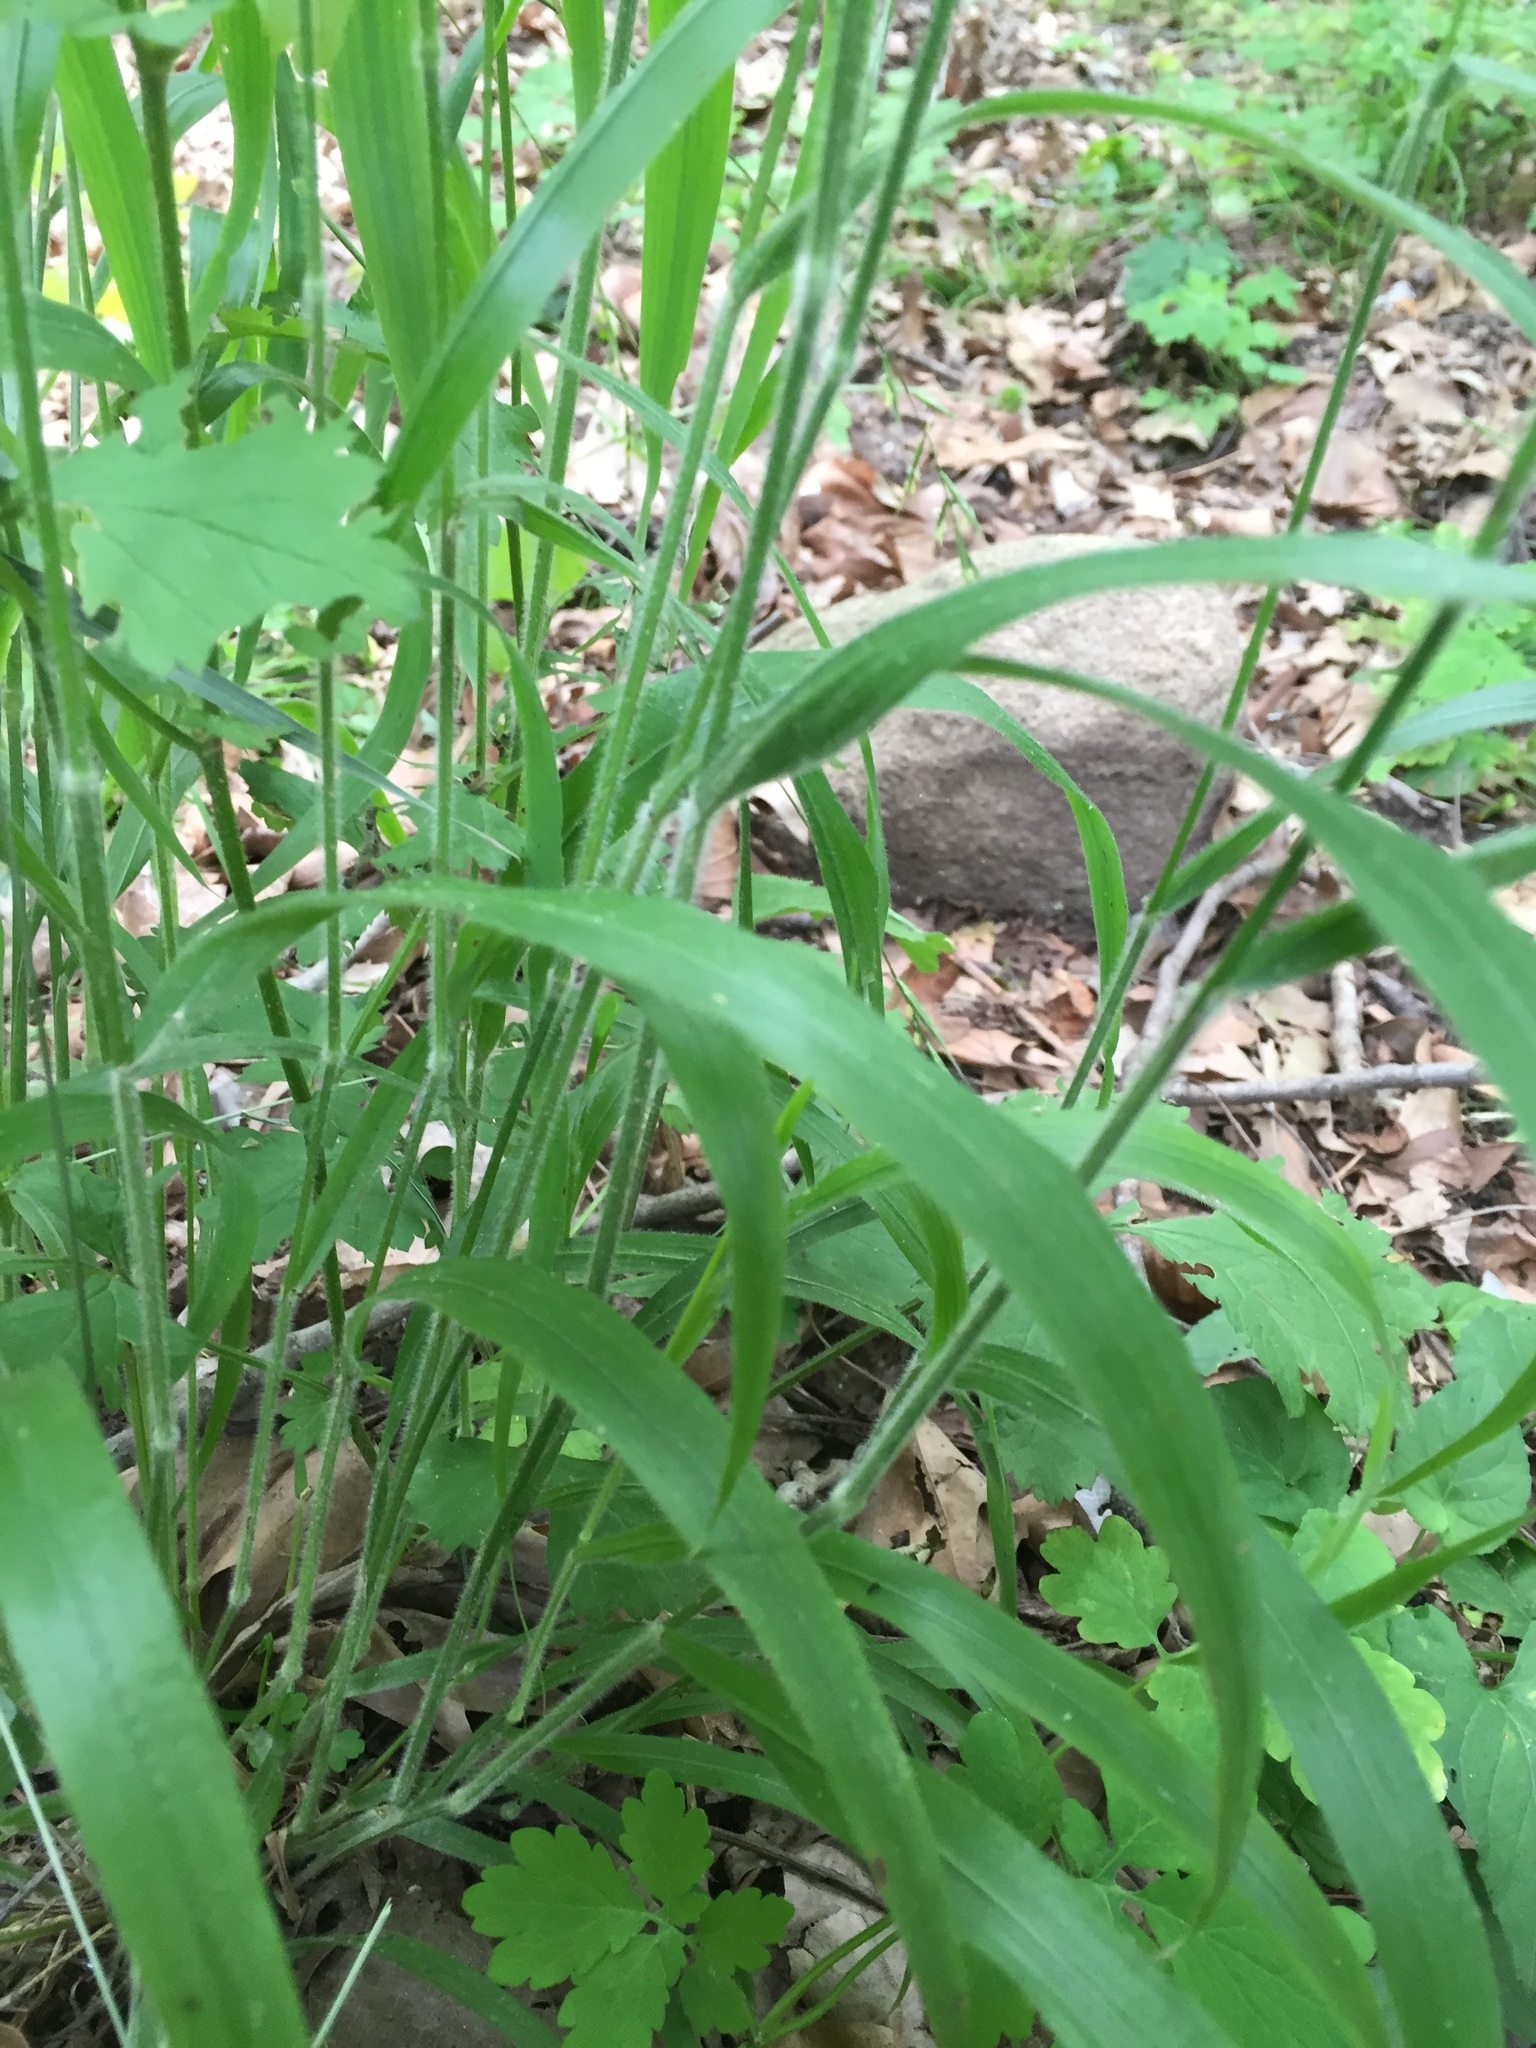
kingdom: Plantae
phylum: Tracheophyta
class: Liliopsida
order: Poales
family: Poaceae
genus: Brachypodium
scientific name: Brachypodium sylvaticum
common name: False-brome
